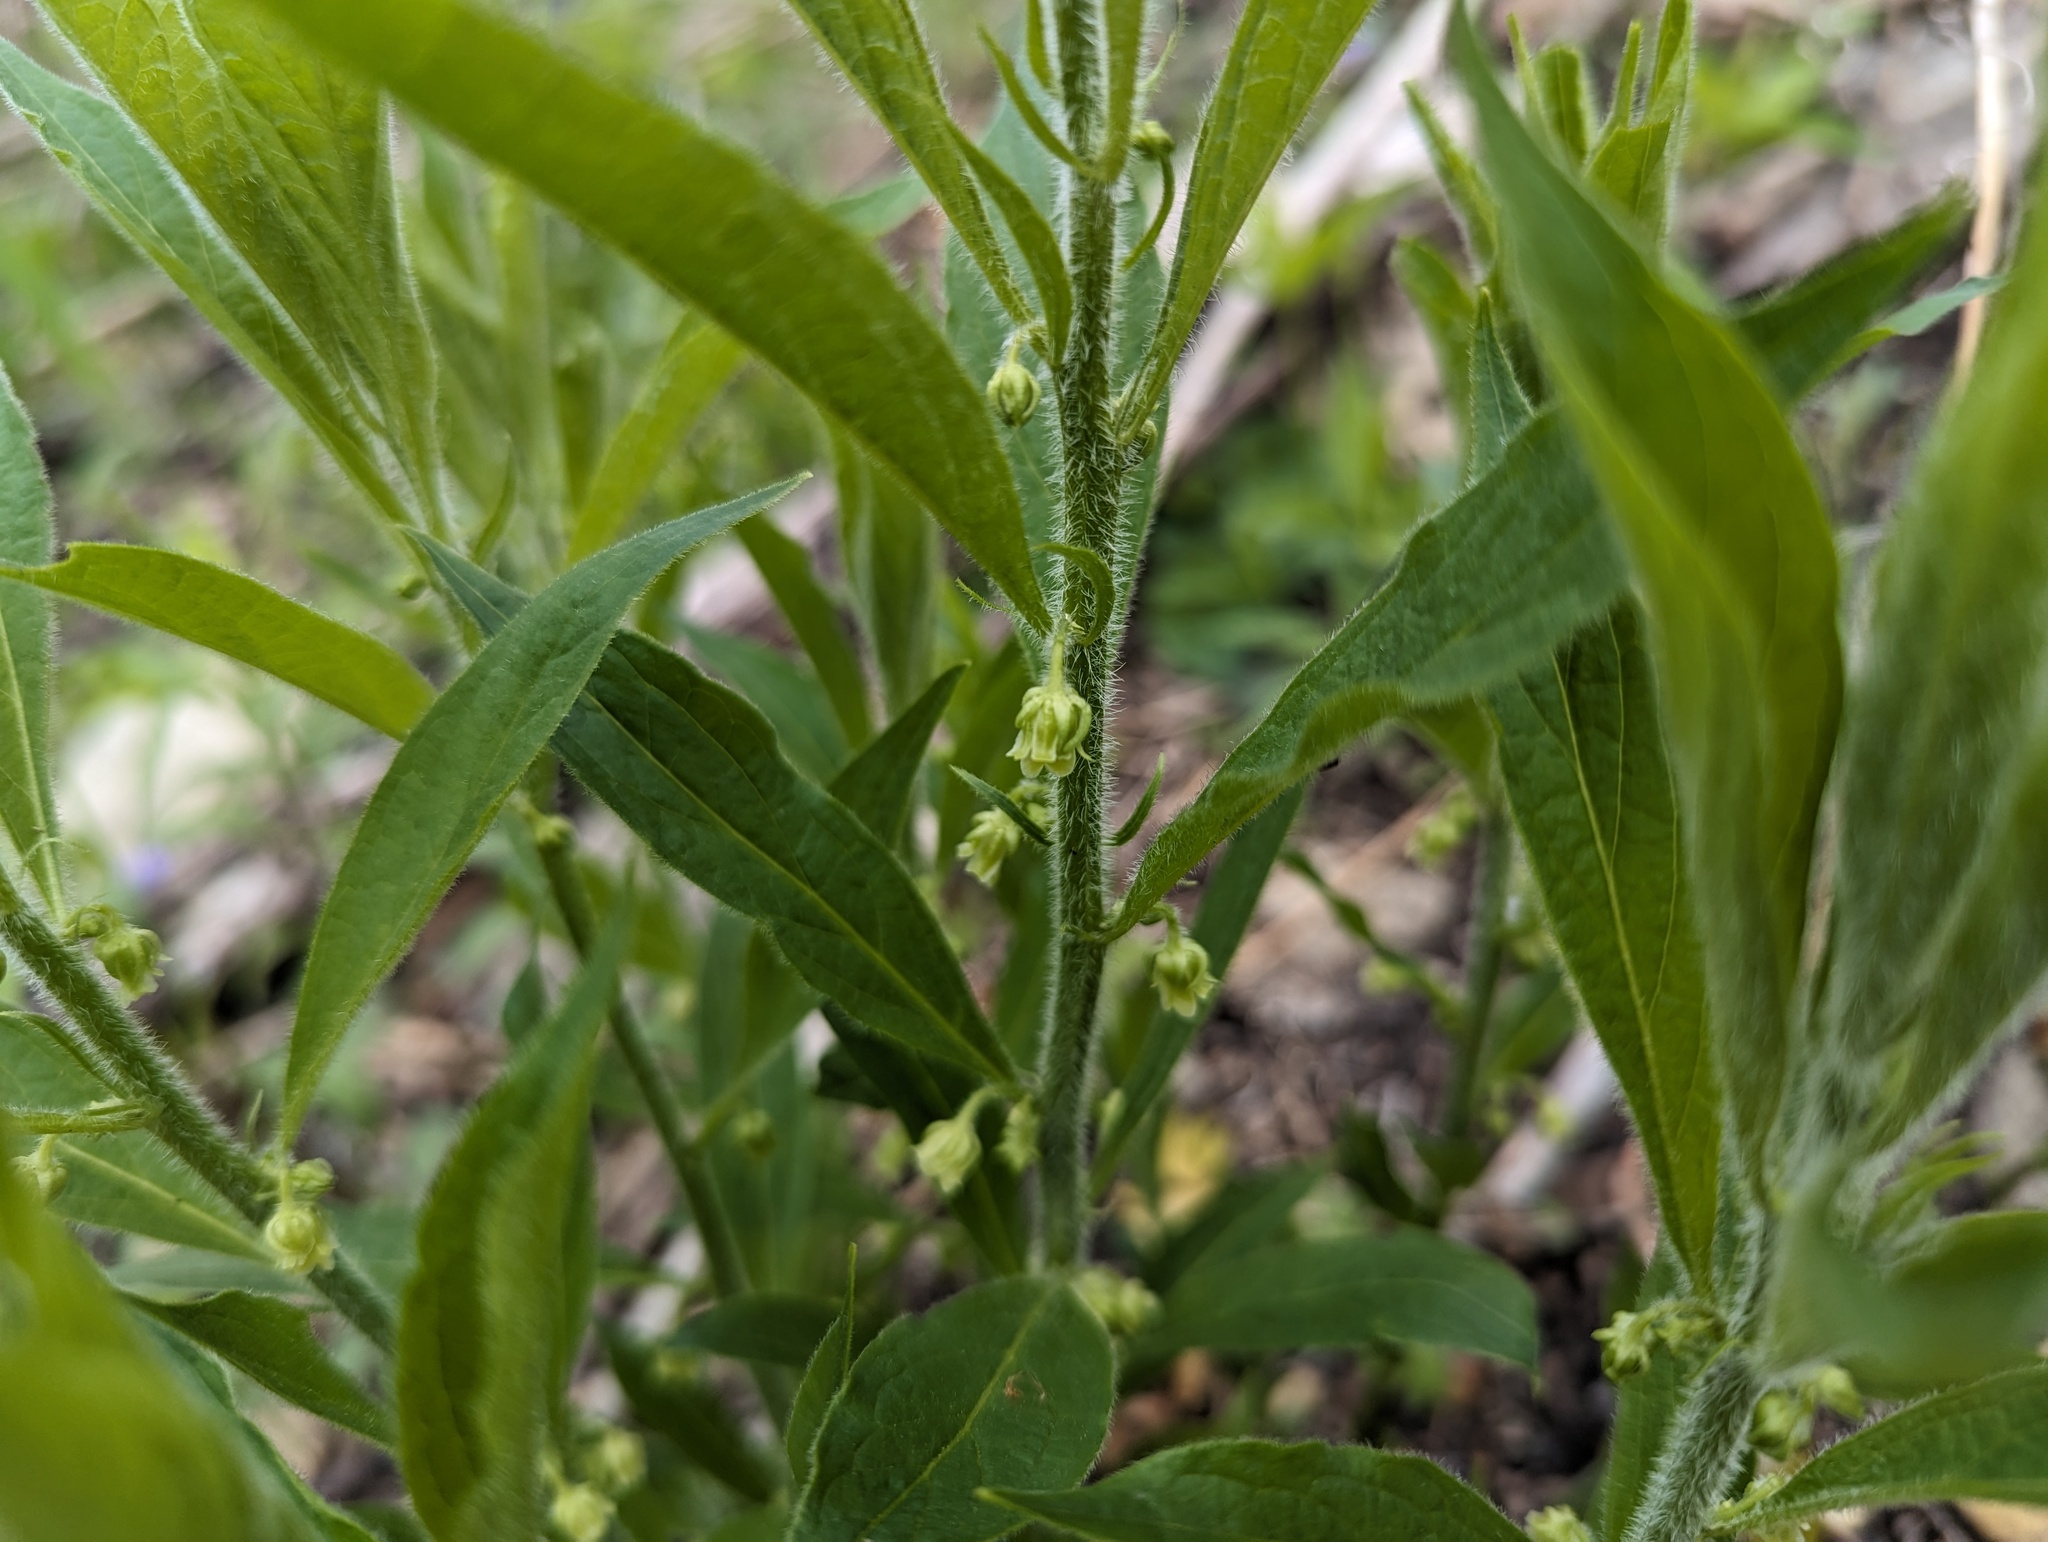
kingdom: Plantae
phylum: Tracheophyta
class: Magnoliopsida
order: Malpighiales
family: Violaceae
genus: Cubelium
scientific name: Cubelium concolor
